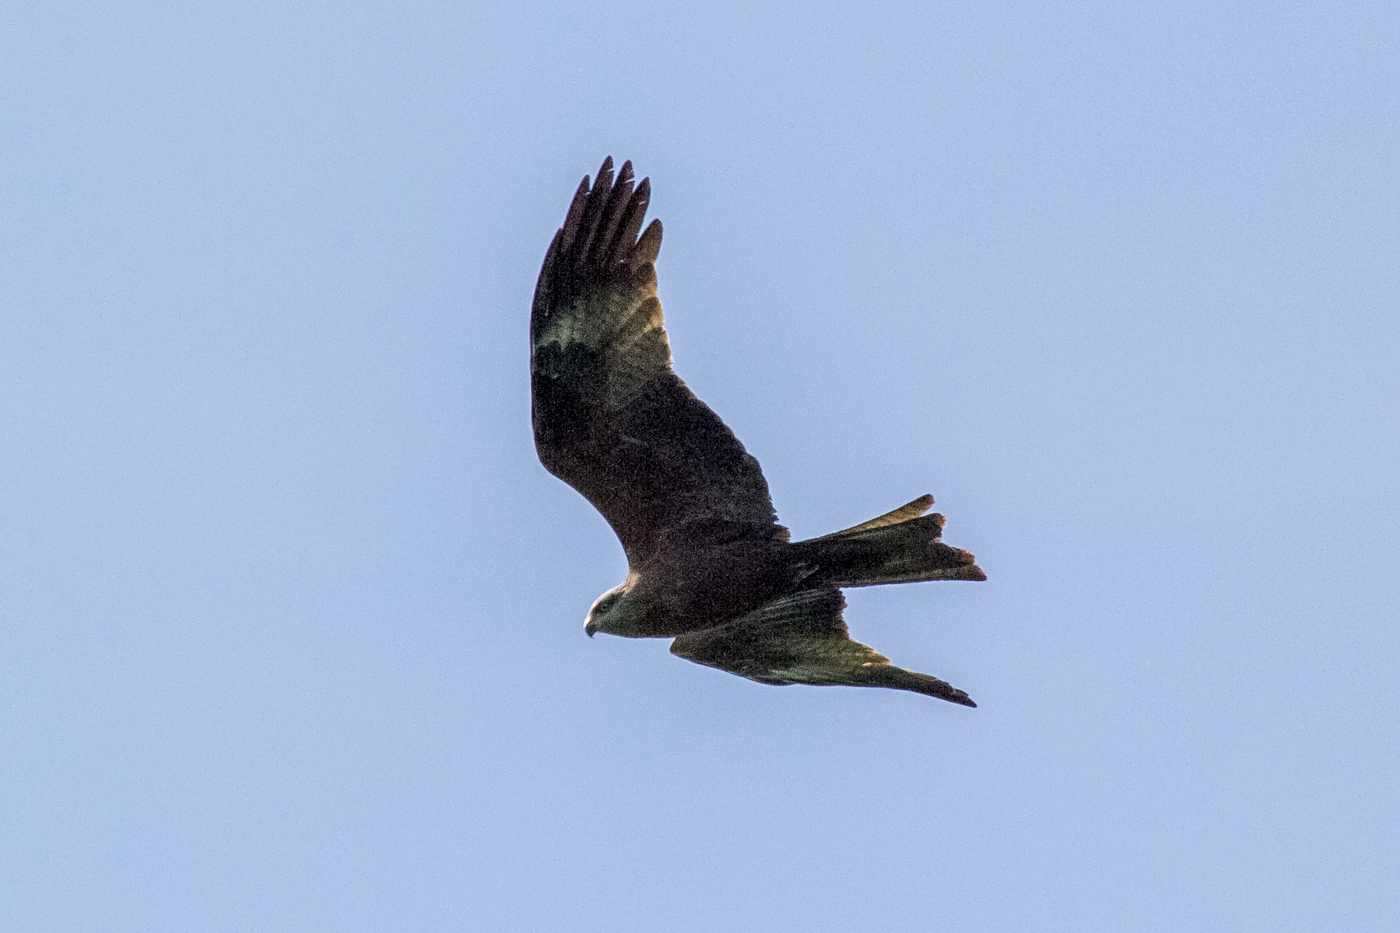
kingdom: Animalia
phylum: Chordata
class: Aves
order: Accipitriformes
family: Accipitridae
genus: Milvus
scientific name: Milvus migrans
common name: Black kite
